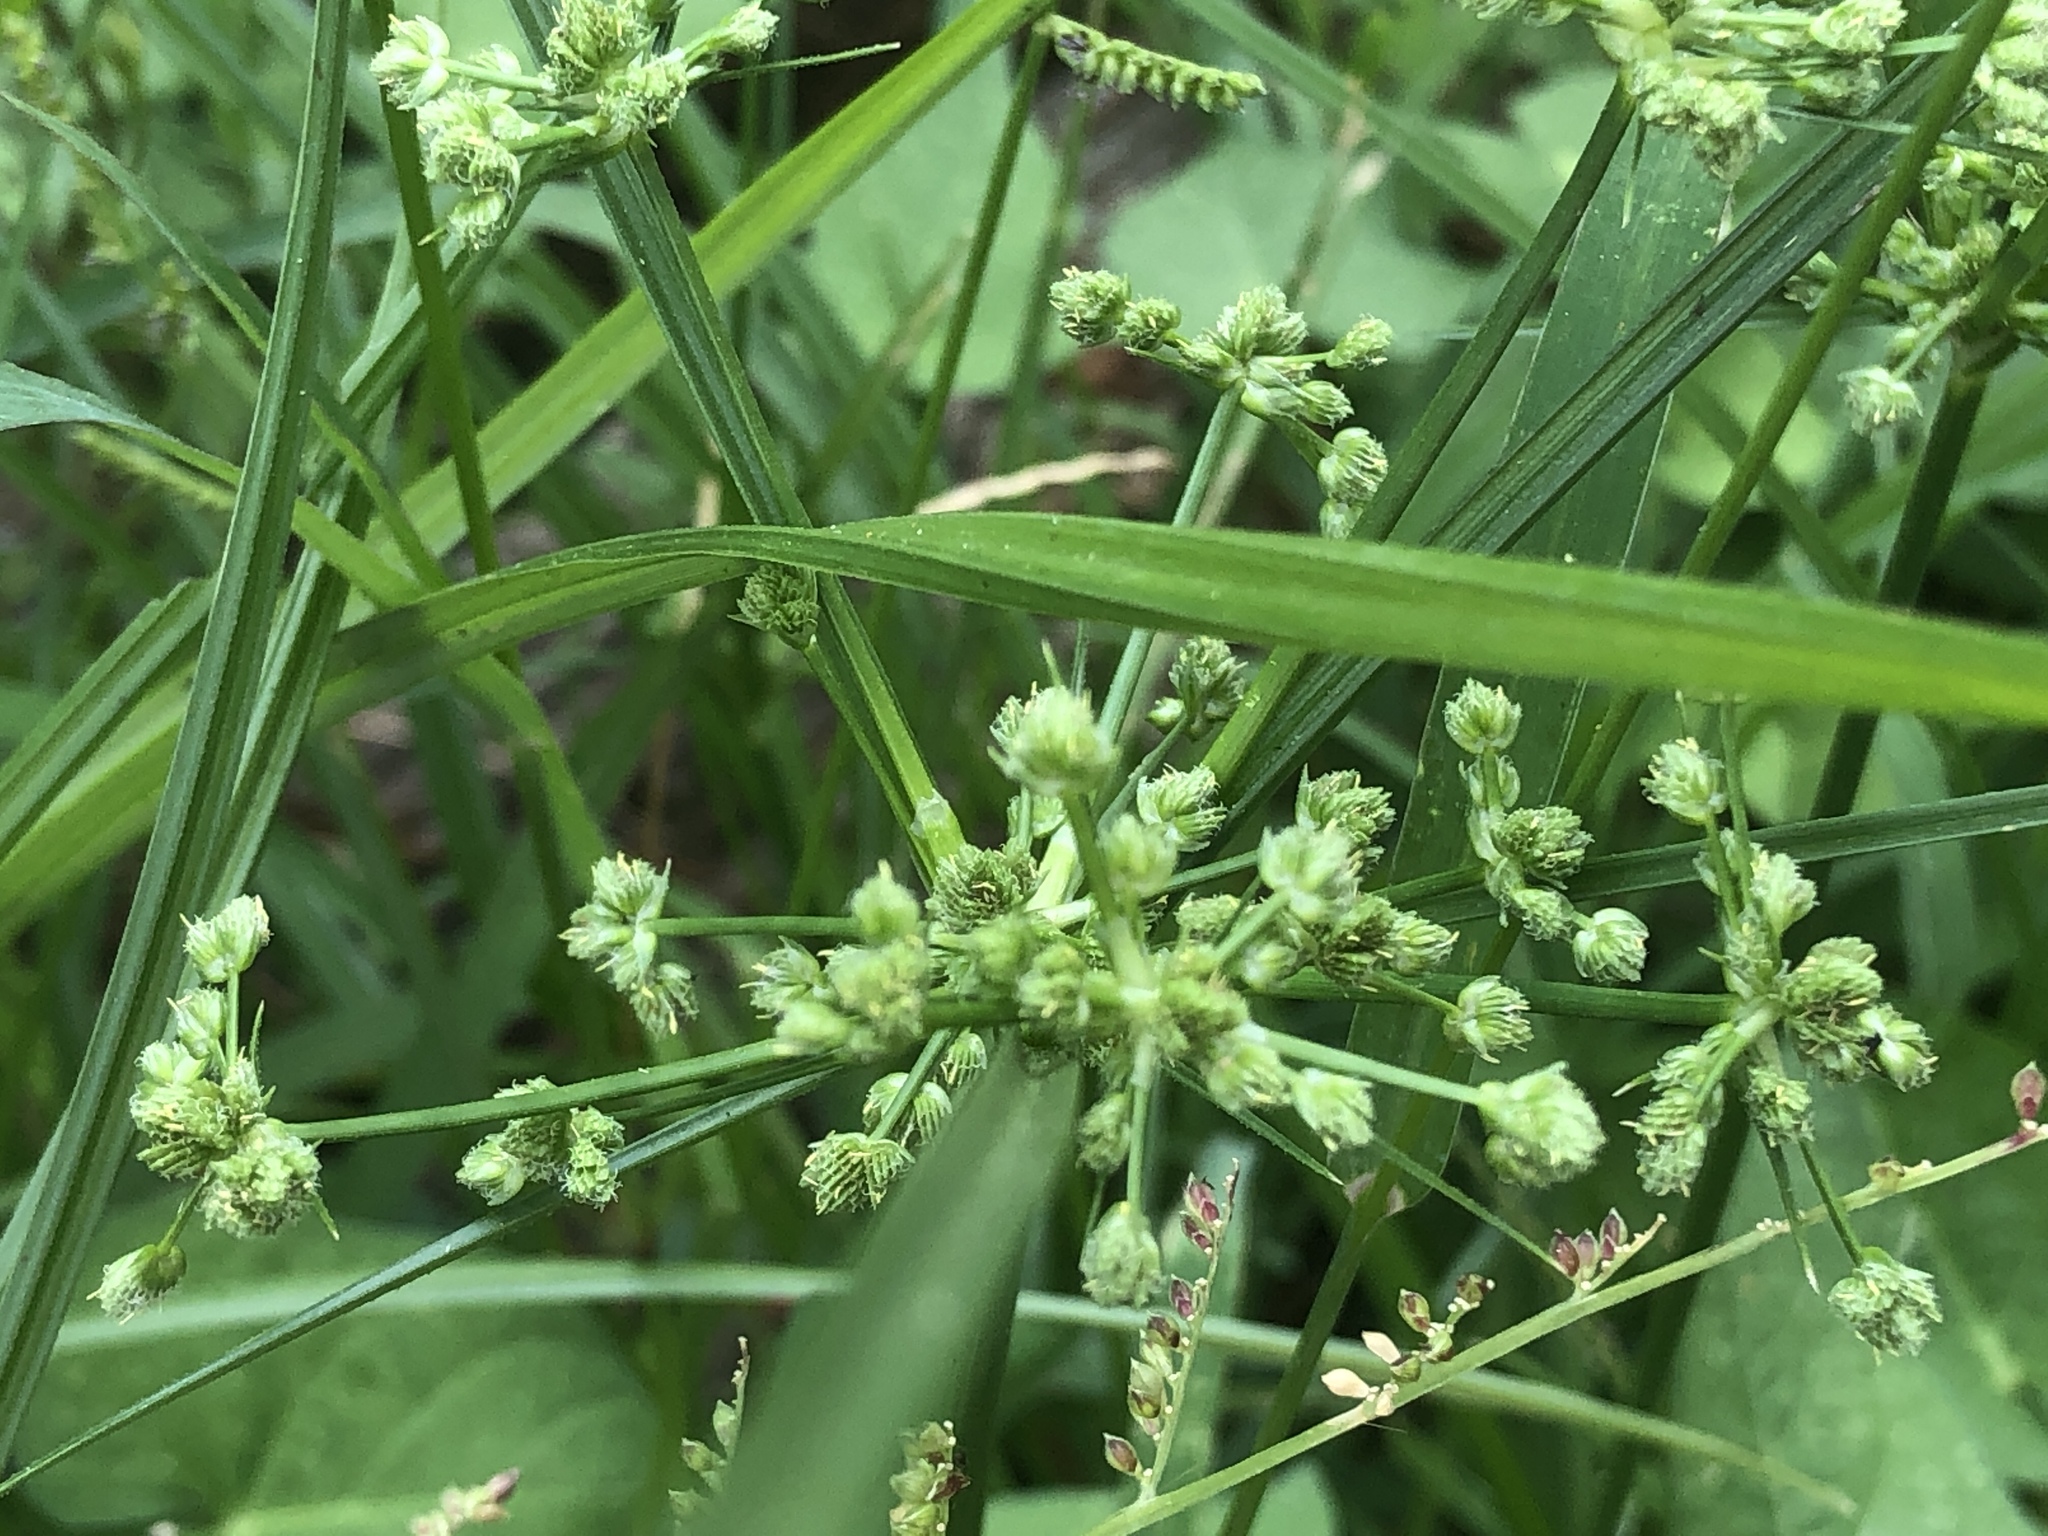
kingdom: Plantae
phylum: Tracheophyta
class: Liliopsida
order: Poales
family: Cyperaceae
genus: Cyperus
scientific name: Cyperus pseudovegetus
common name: Marsh flat sedge
